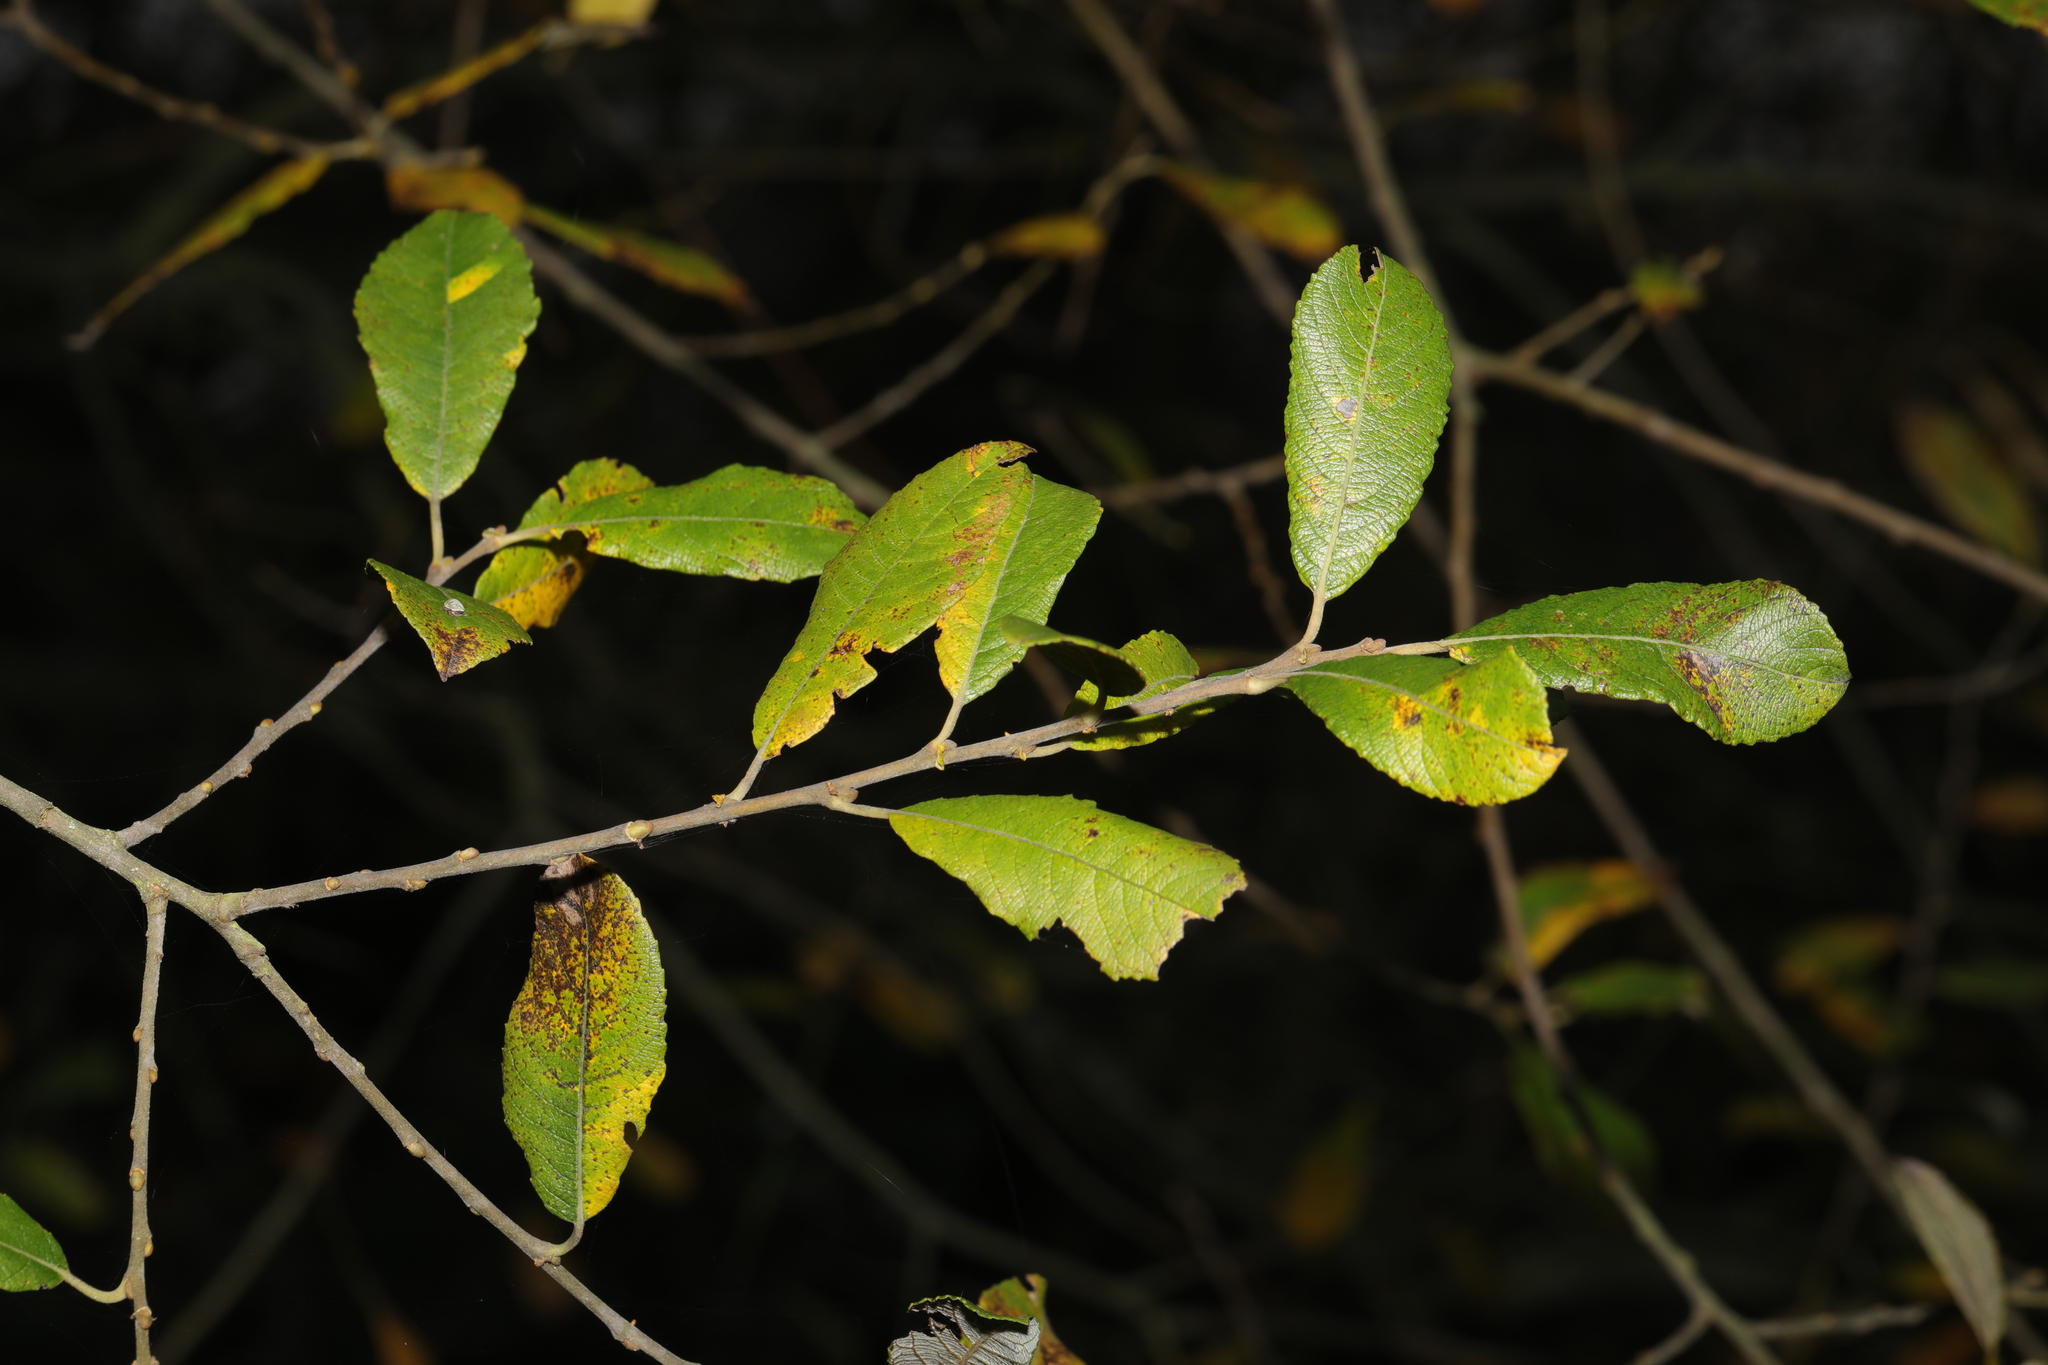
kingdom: Plantae
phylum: Tracheophyta
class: Magnoliopsida
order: Malpighiales
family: Salicaceae
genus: Salix
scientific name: Salix atrocinerea
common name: Rusty willow
